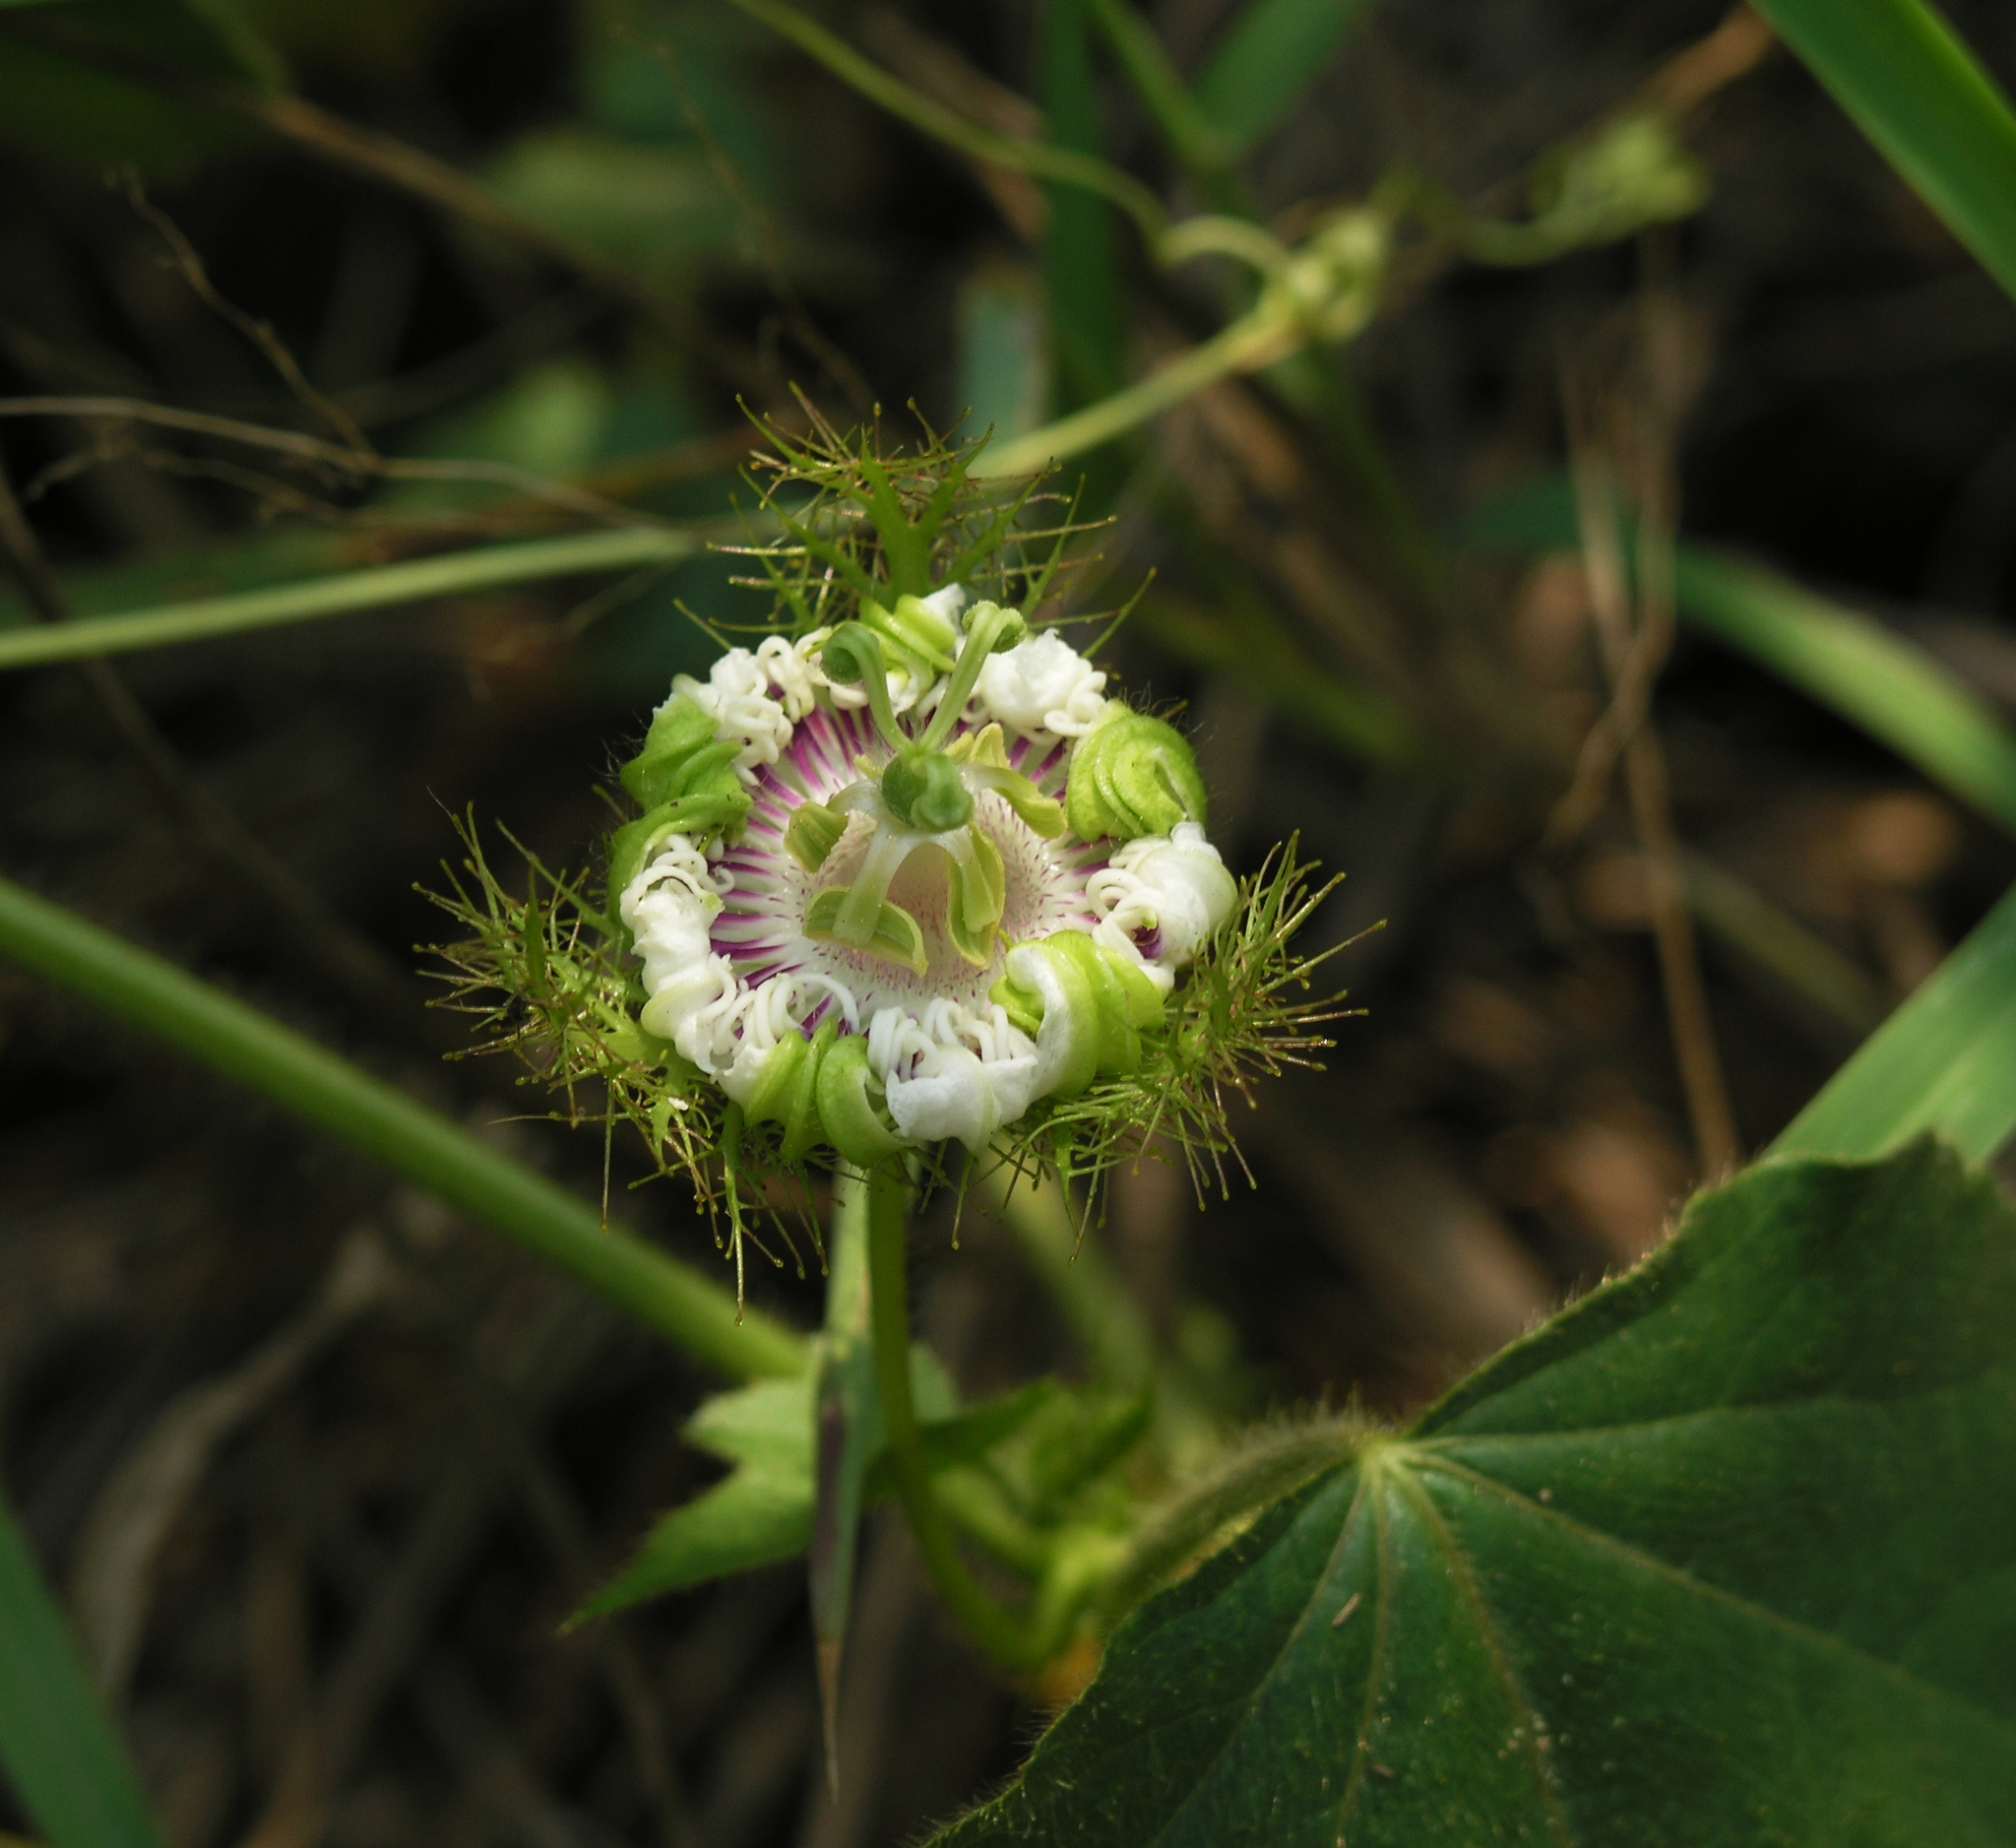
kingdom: Plantae
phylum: Tracheophyta
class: Magnoliopsida
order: Malpighiales
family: Passifloraceae
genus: Passiflora
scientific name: Passiflora foetida
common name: Fetid passionflower
